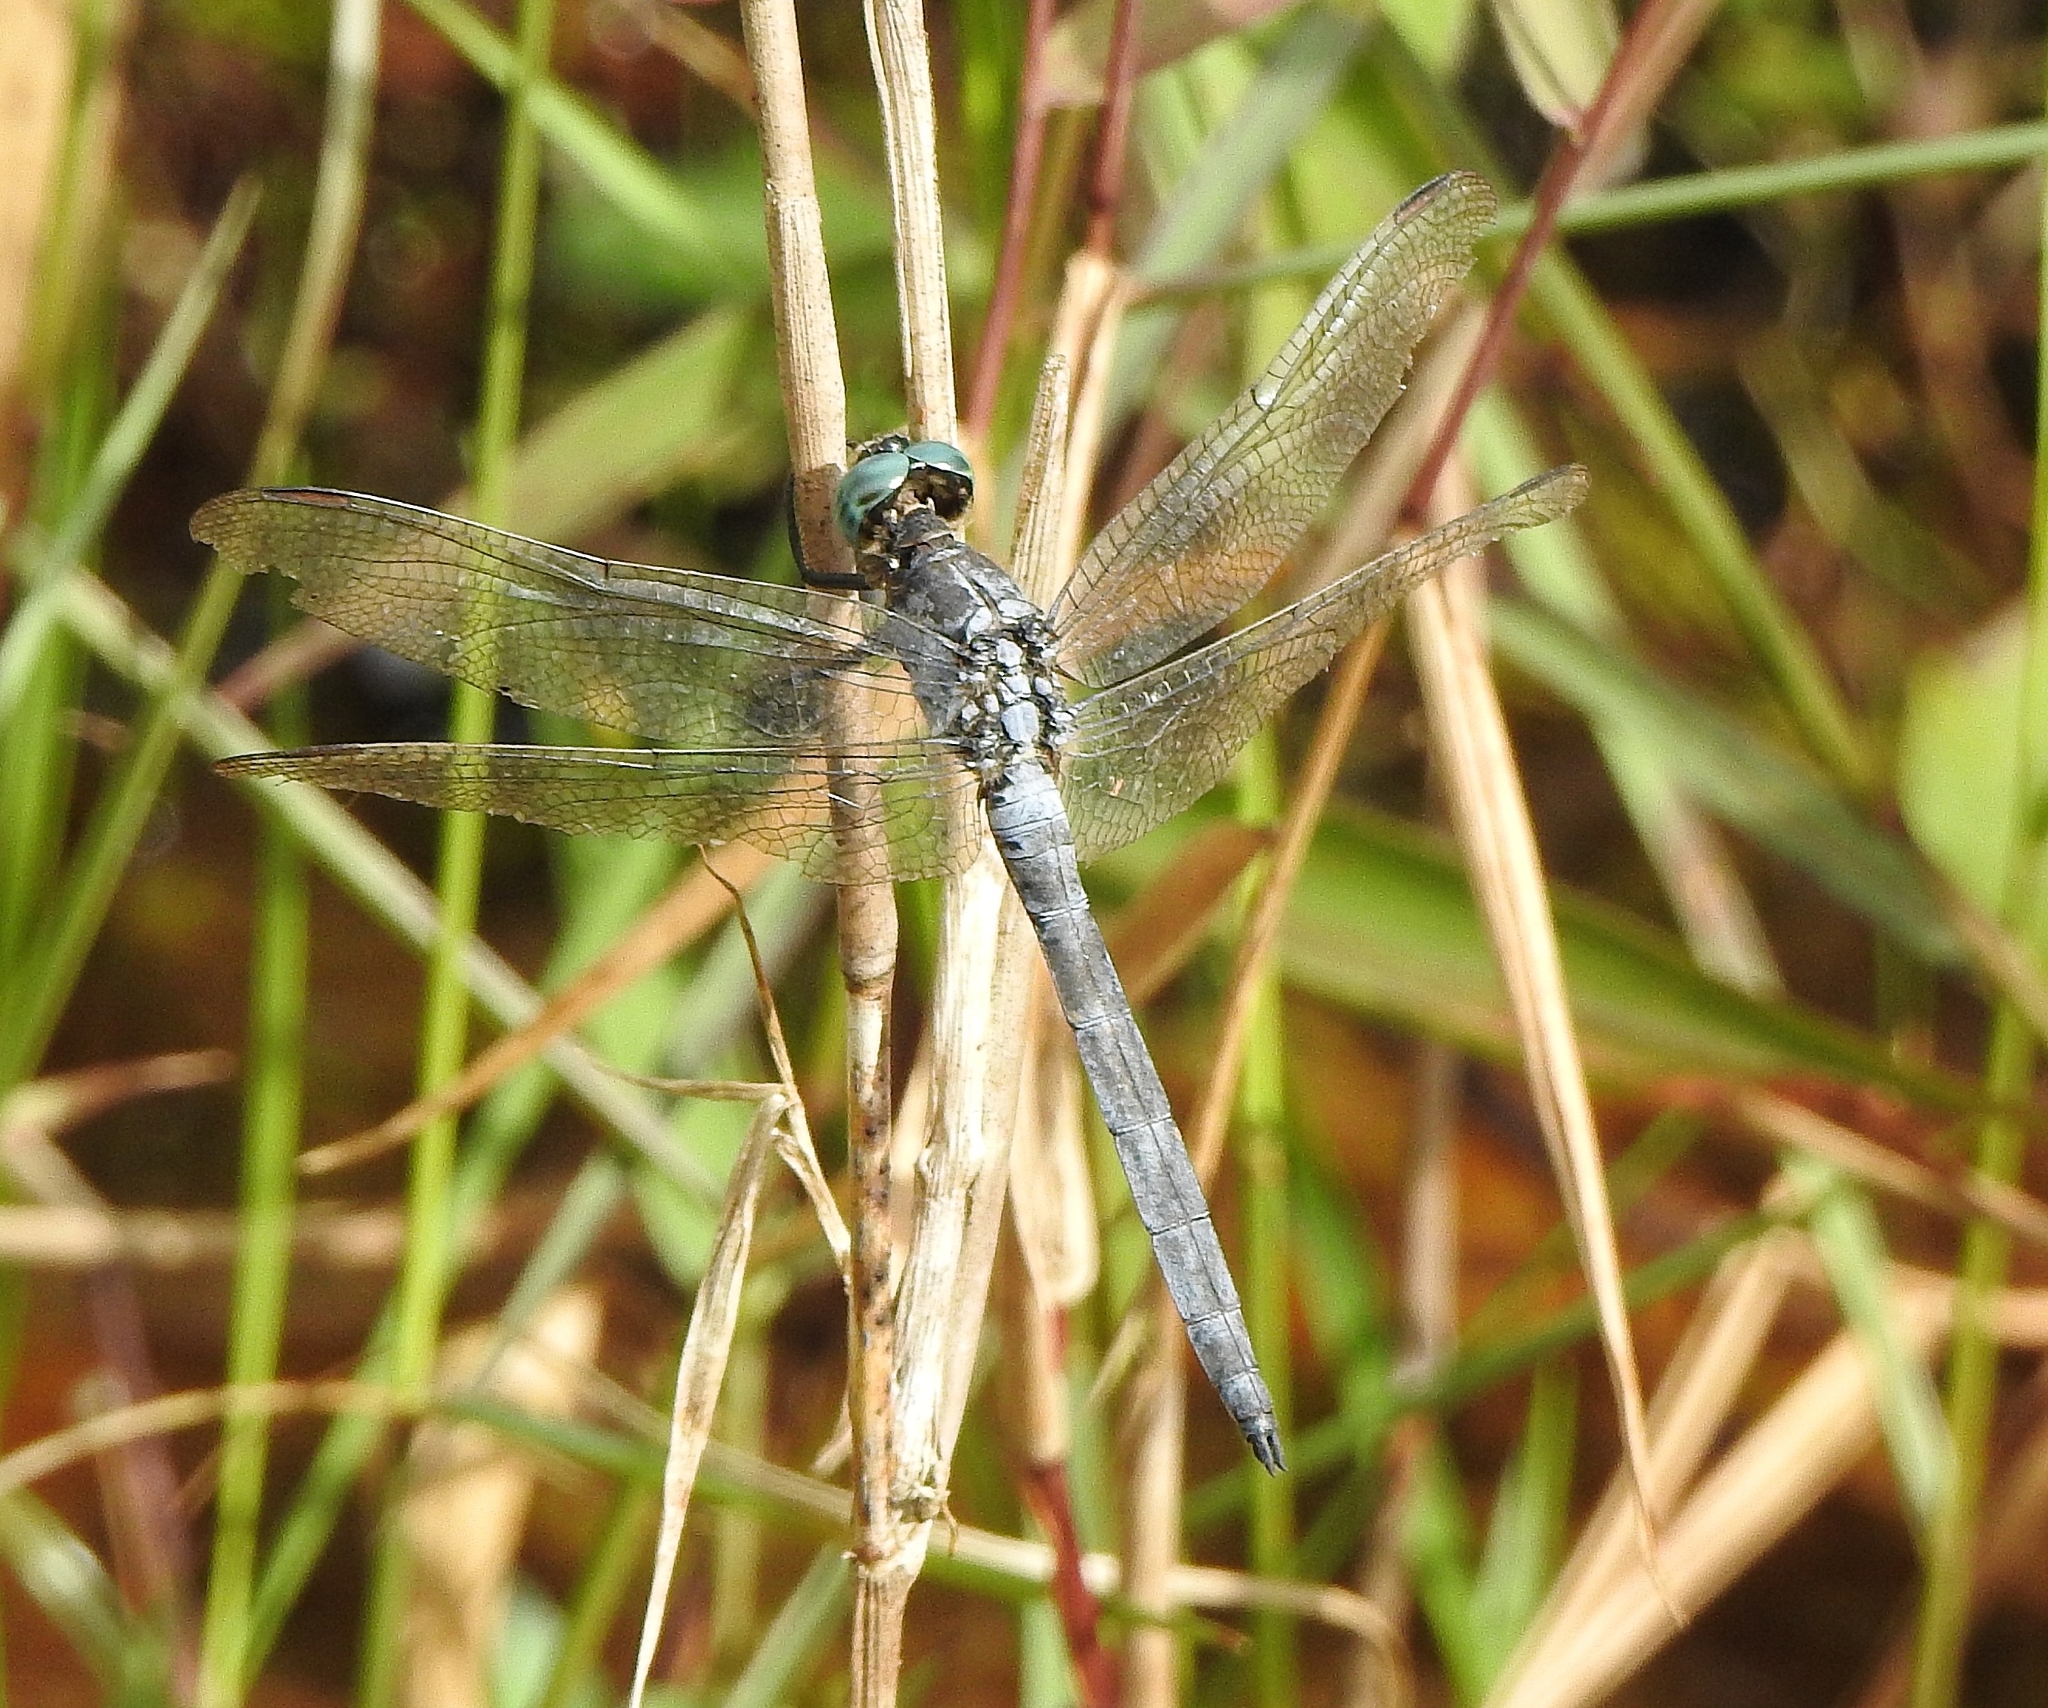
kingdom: Animalia
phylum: Arthropoda
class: Insecta
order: Odonata
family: Libellulidae
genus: Orthetrum
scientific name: Orthetrum luzonicum
